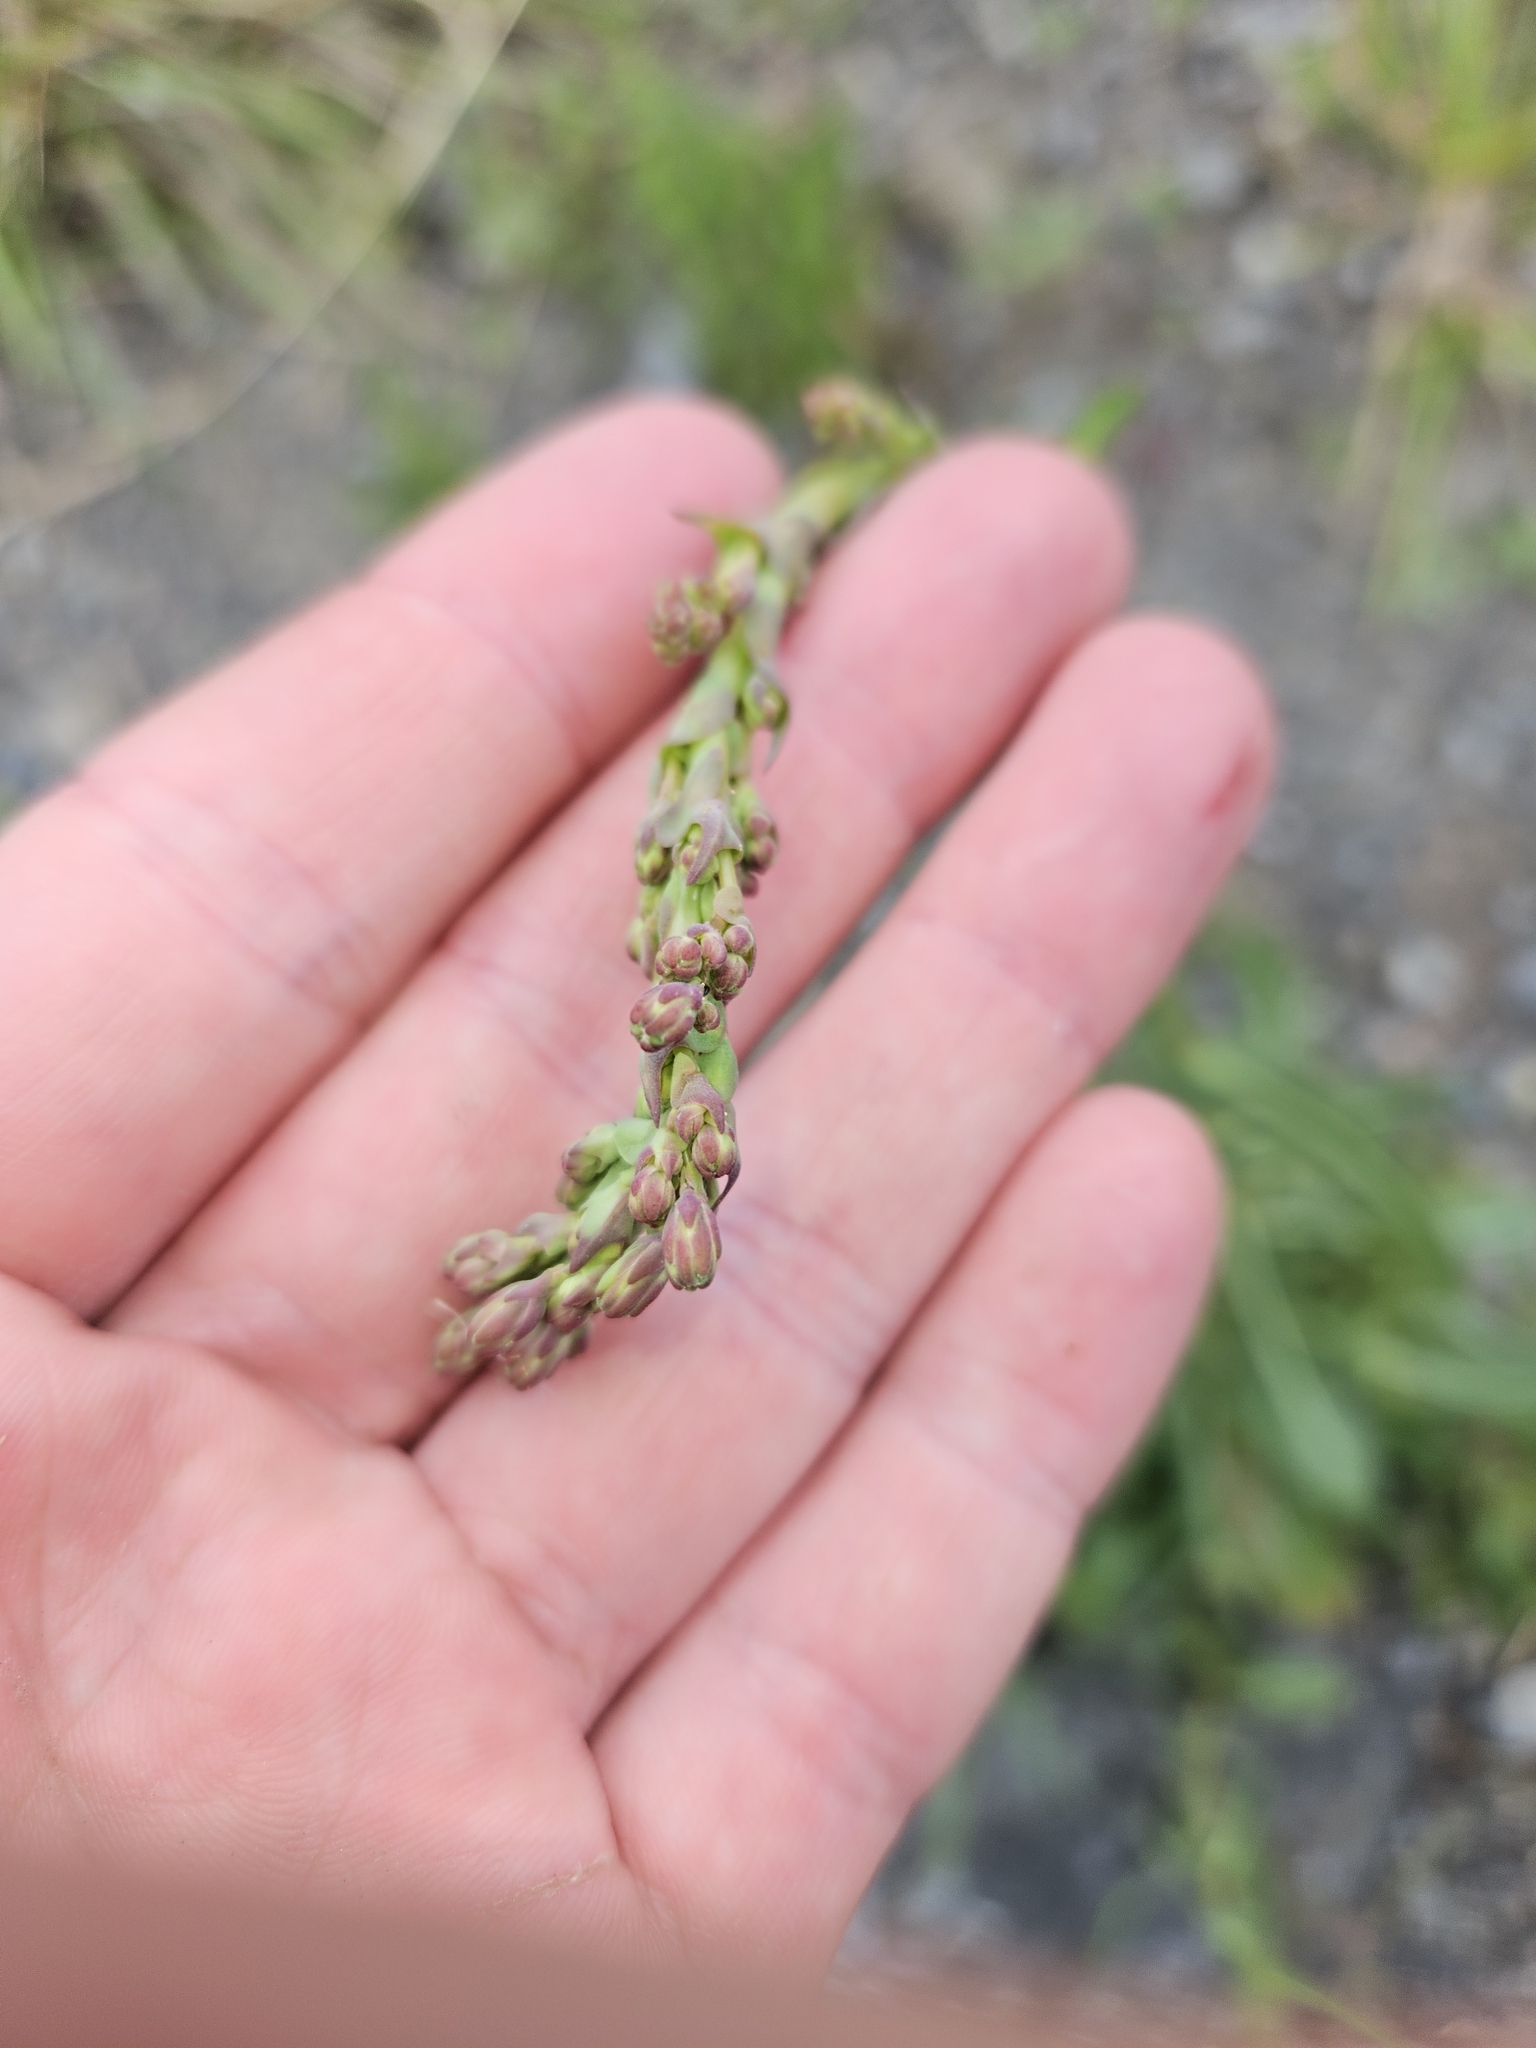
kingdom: Plantae
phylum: Tracheophyta
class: Magnoliopsida
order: Asterales
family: Asteraceae
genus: Lactuca
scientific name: Lactuca serriola
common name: Prickly lettuce
